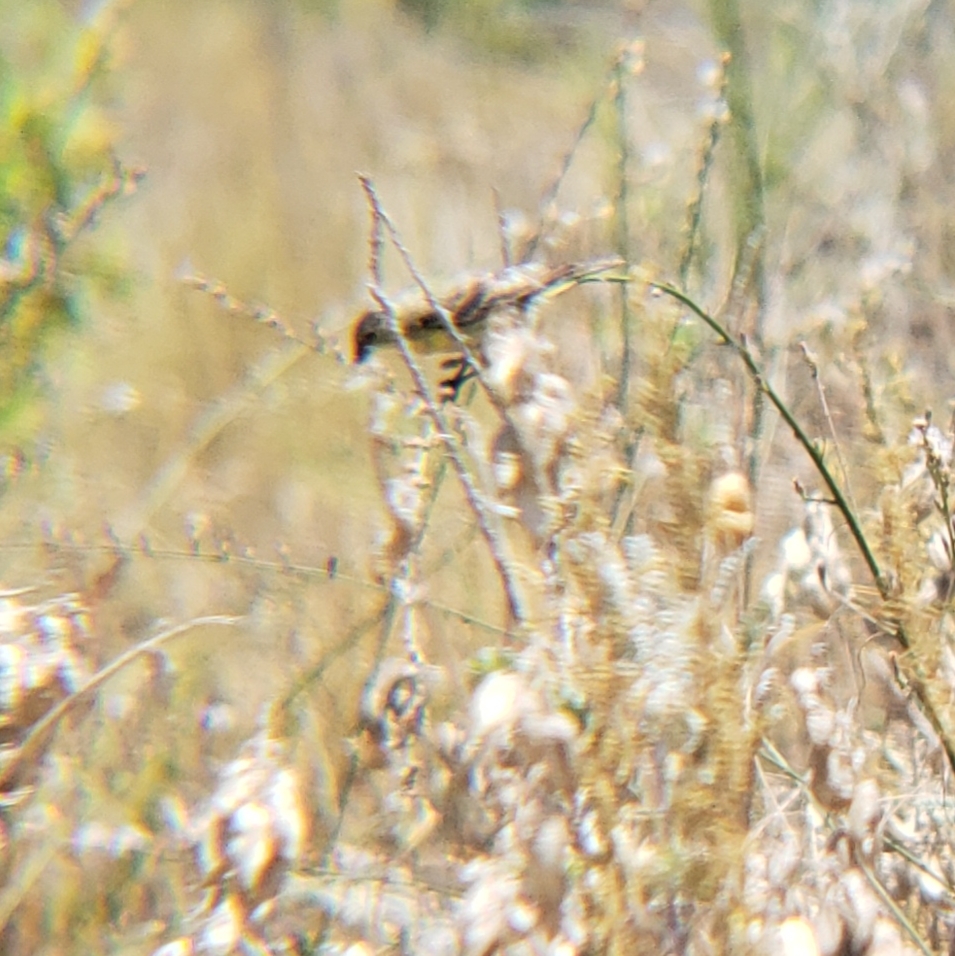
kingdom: Animalia
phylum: Chordata
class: Aves
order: Passeriformes
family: Fringillidae
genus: Spinus
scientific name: Spinus psaltria
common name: Lesser goldfinch
